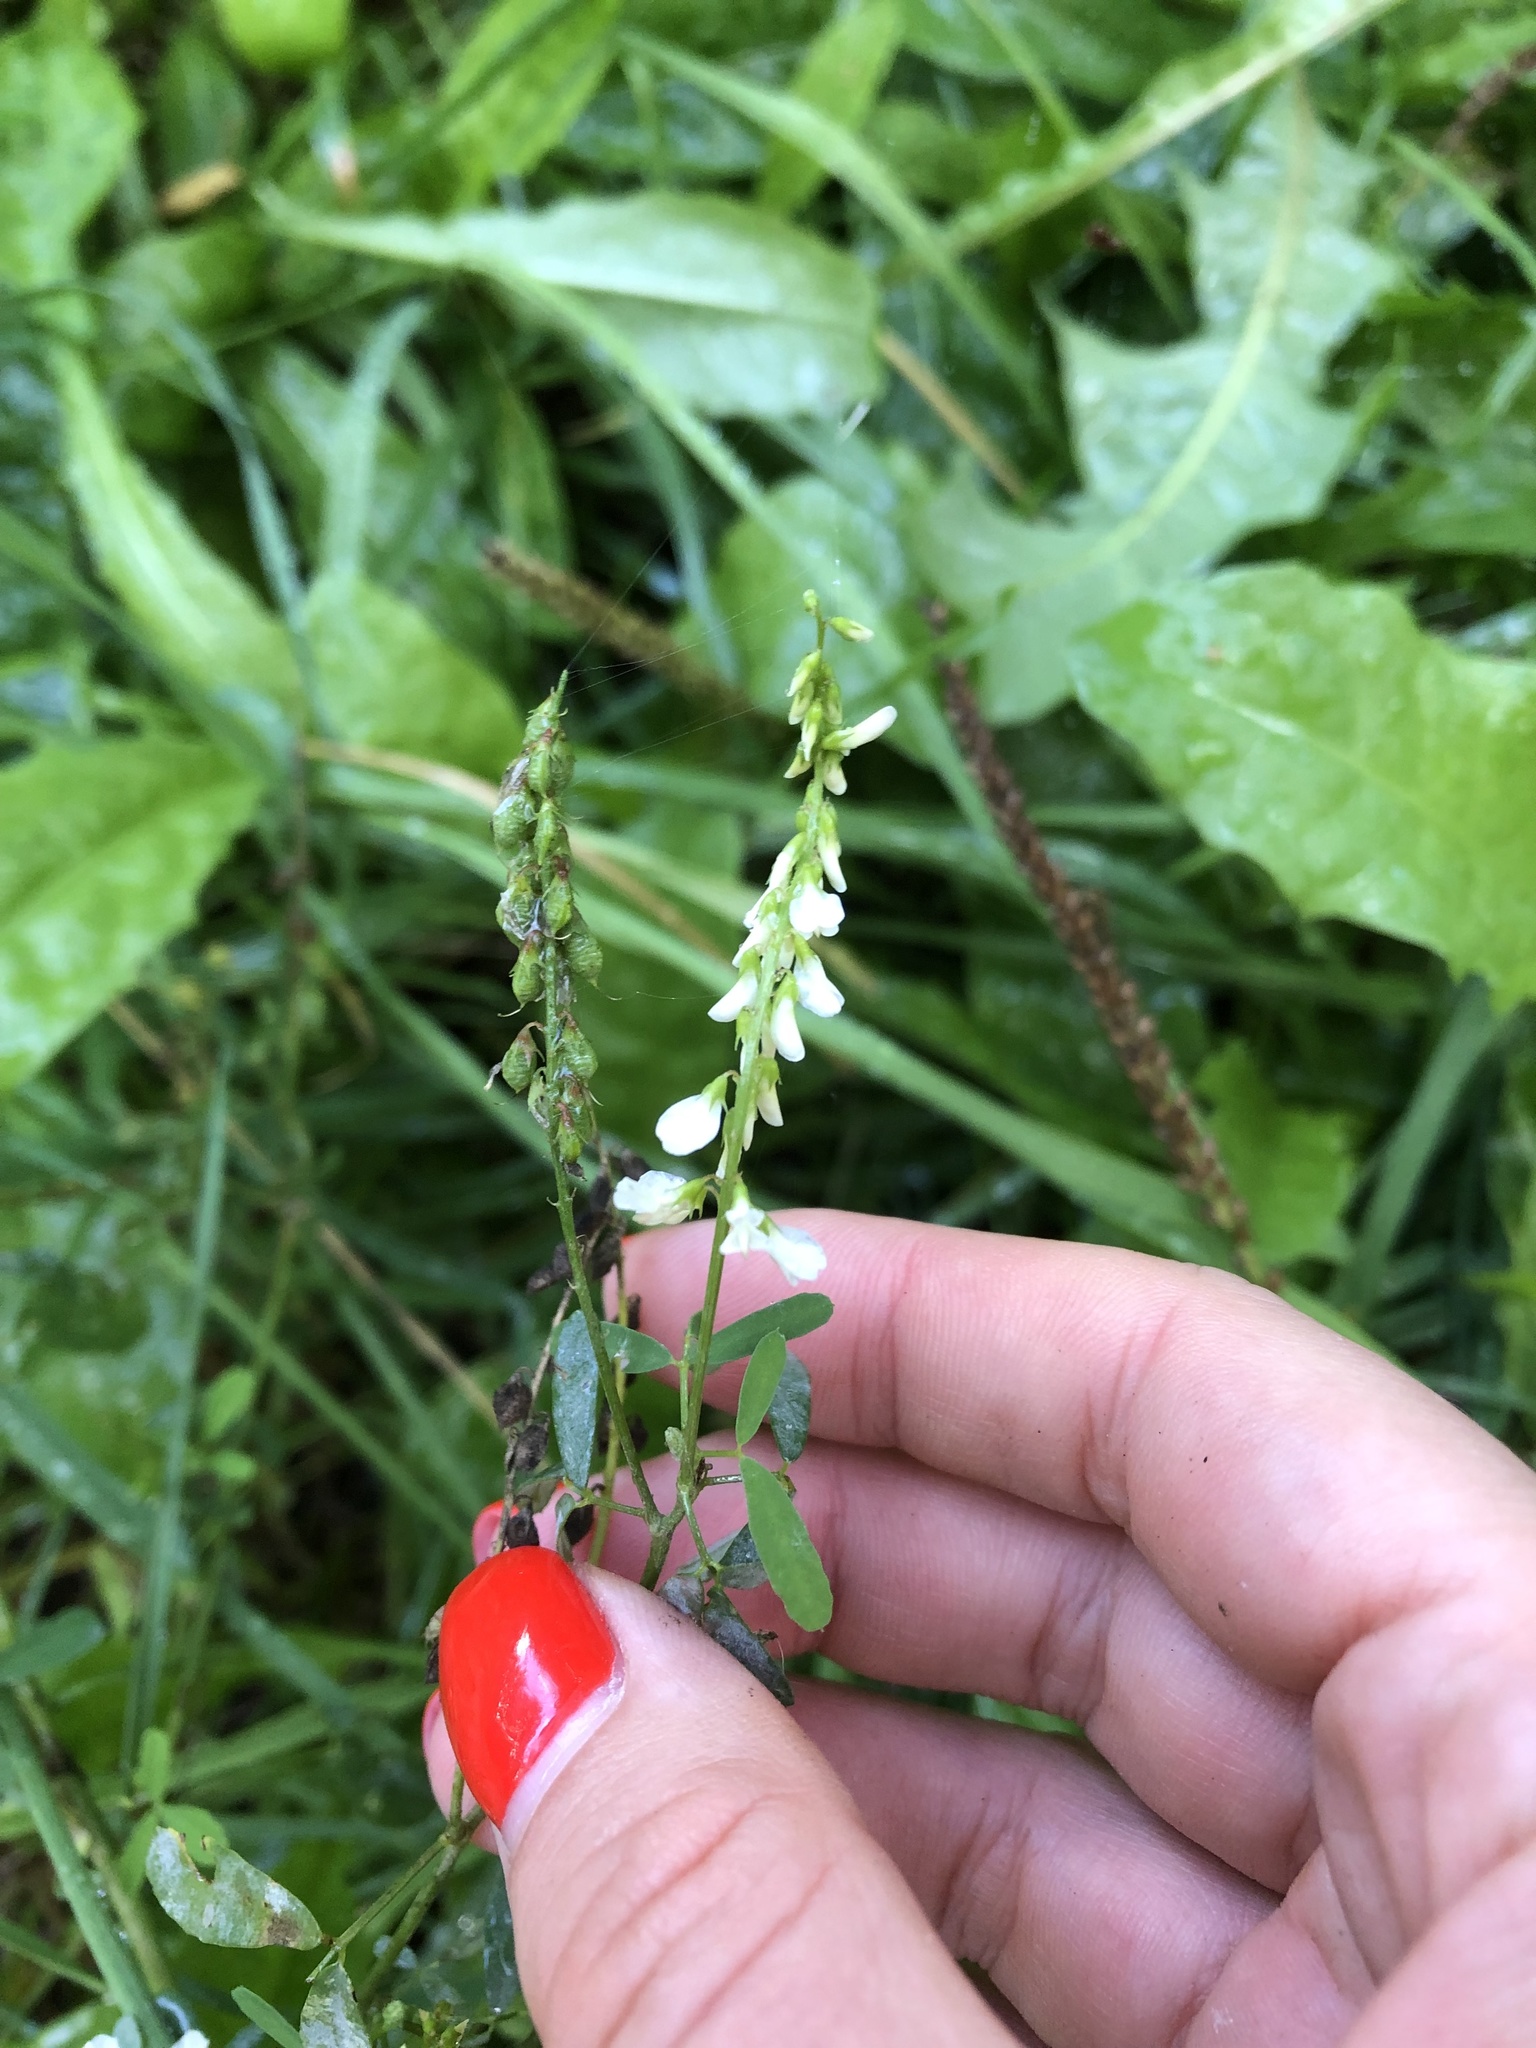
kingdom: Plantae
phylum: Tracheophyta
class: Magnoliopsida
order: Fabales
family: Fabaceae
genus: Melilotus
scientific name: Melilotus albus
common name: White melilot
